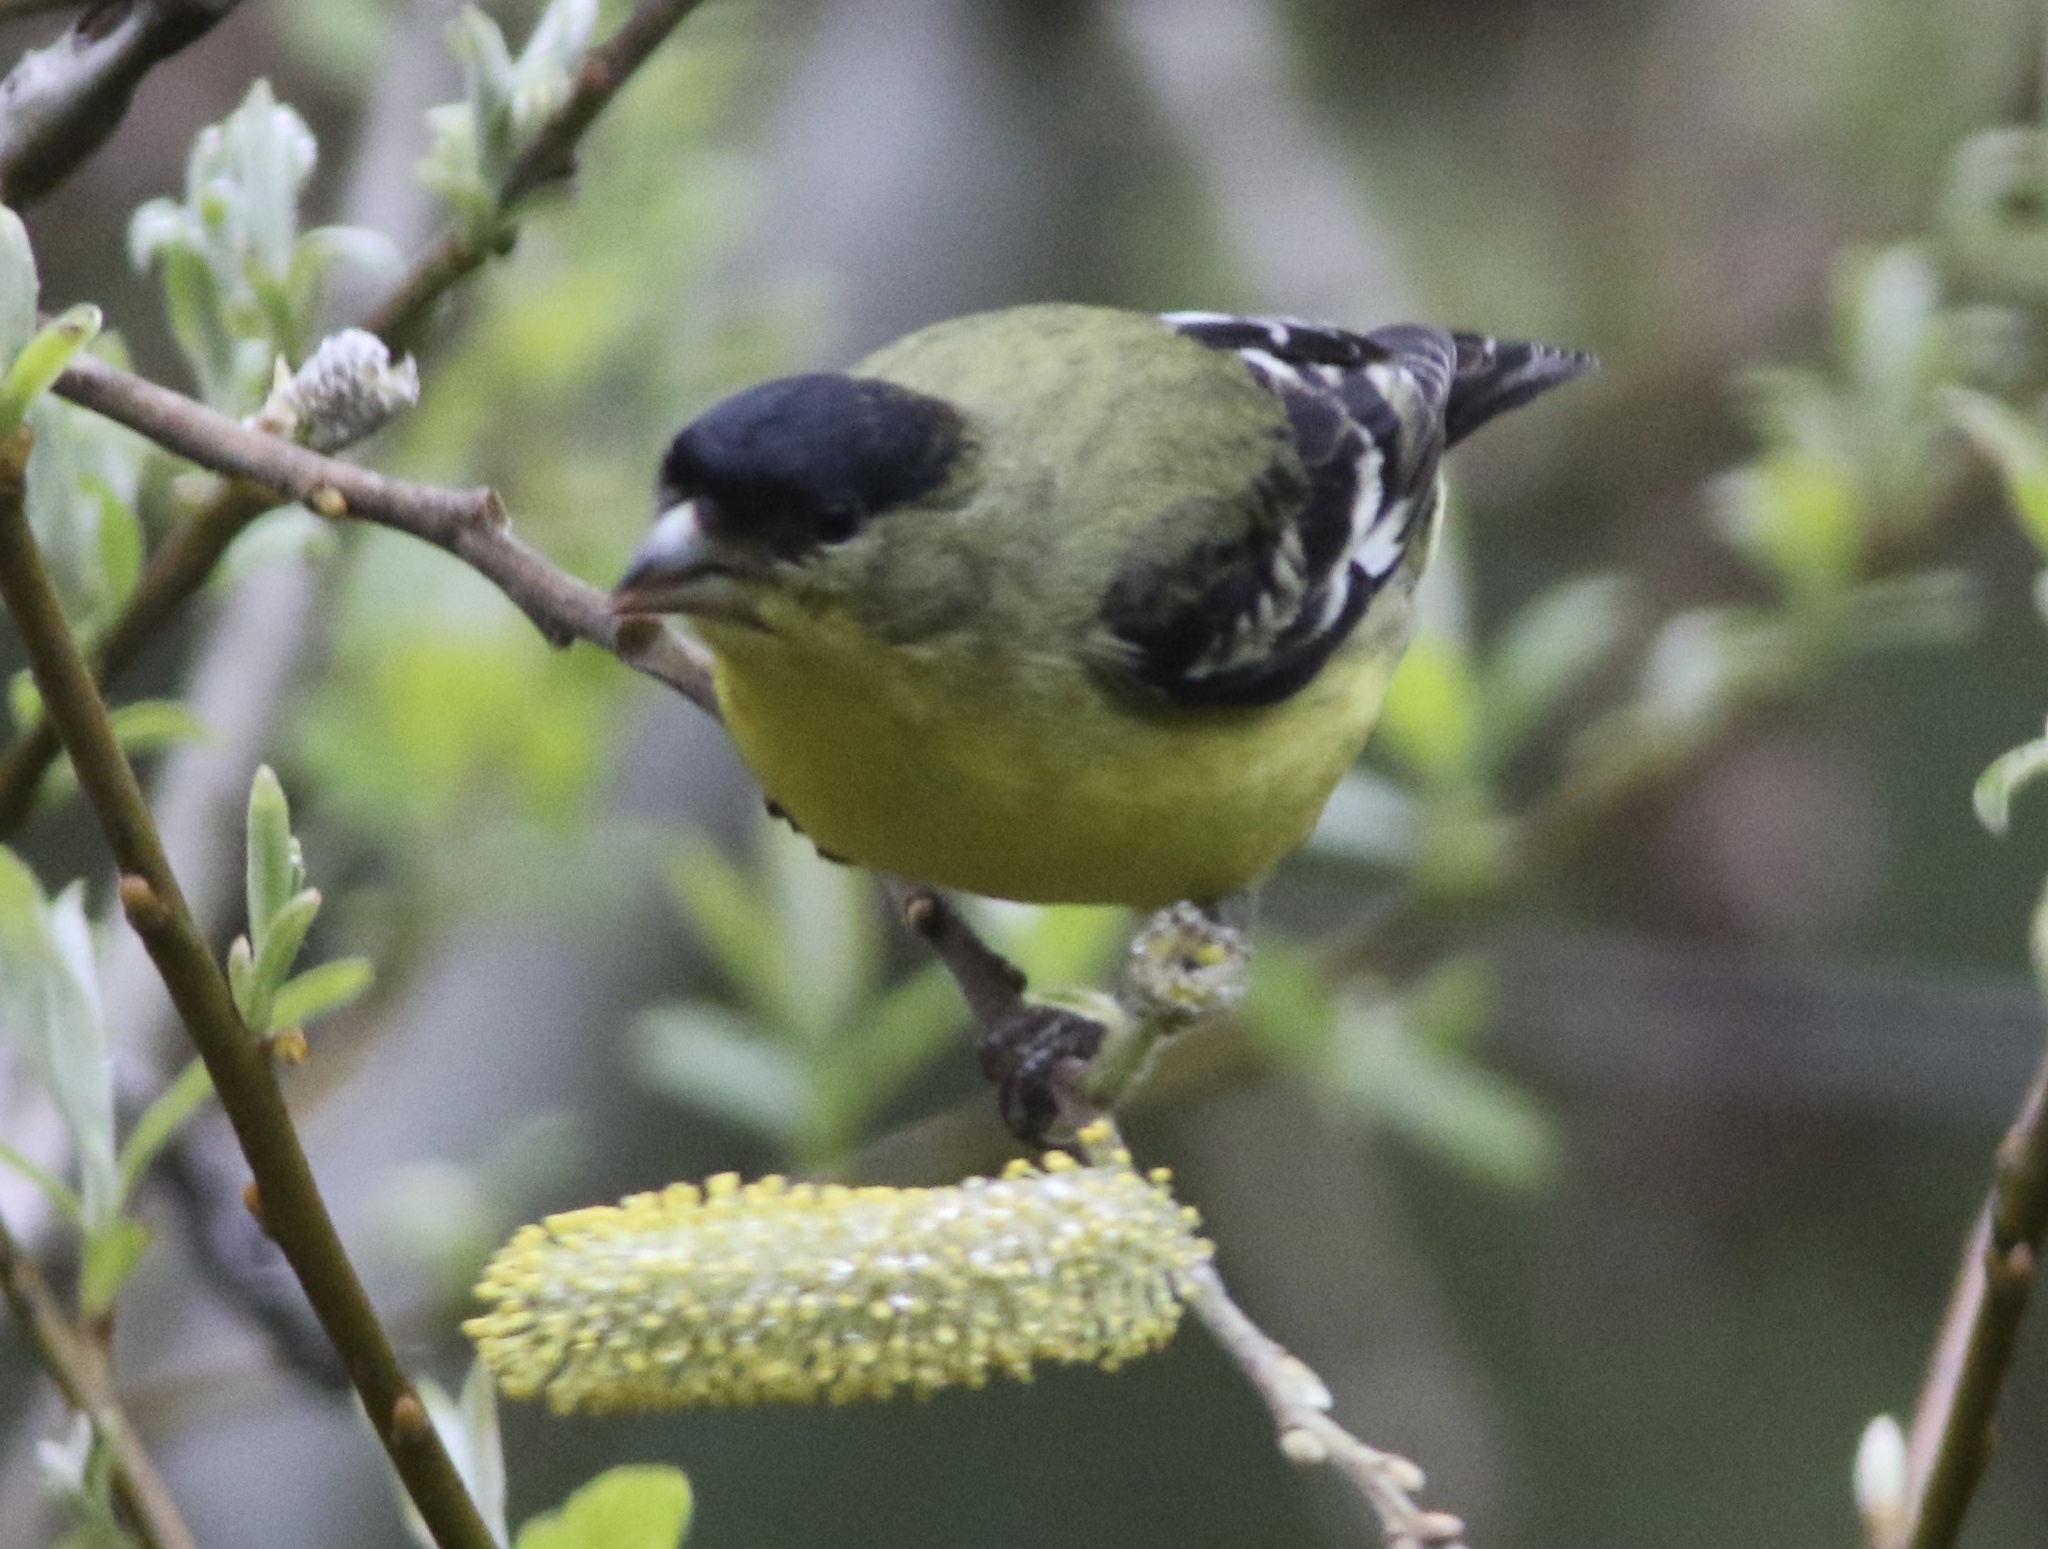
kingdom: Animalia
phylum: Chordata
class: Aves
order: Passeriformes
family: Fringillidae
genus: Spinus
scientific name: Spinus psaltria
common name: Lesser goldfinch
